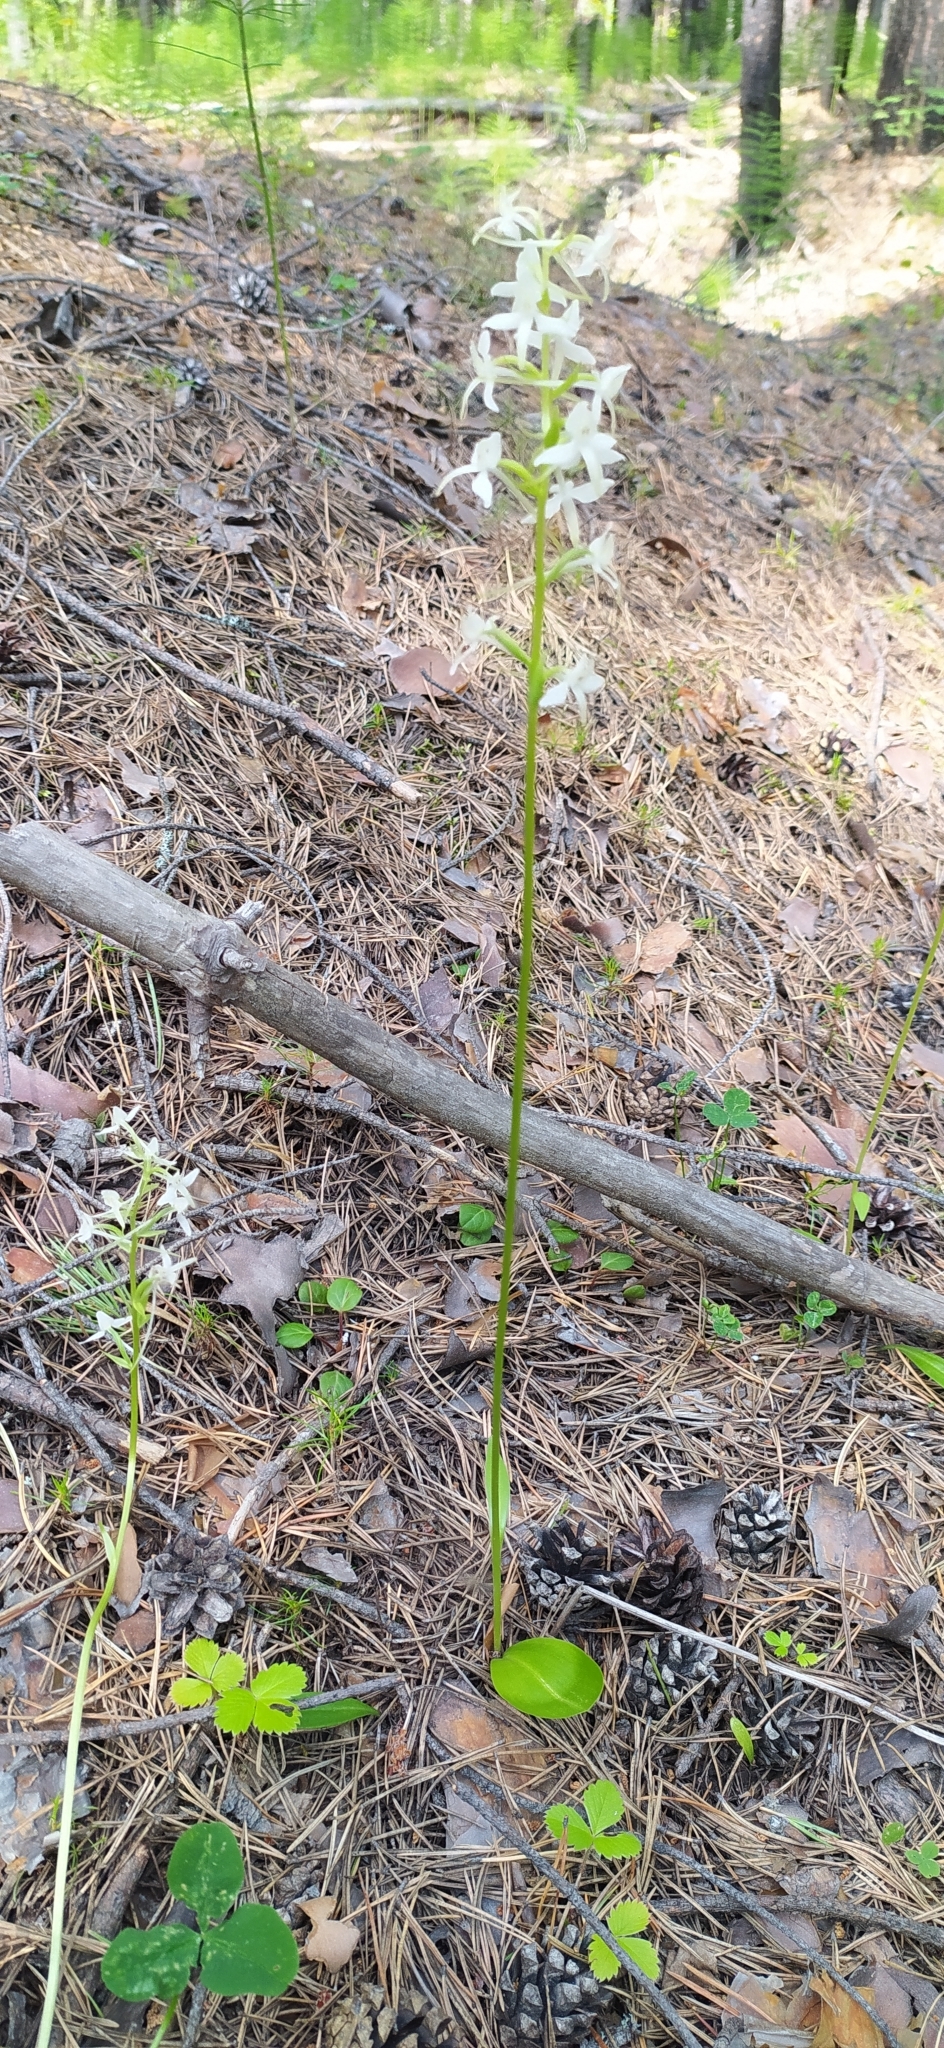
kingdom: Plantae
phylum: Tracheophyta
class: Liliopsida
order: Asparagales
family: Orchidaceae
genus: Platanthera
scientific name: Platanthera bifolia
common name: Lesser butterfly-orchid
